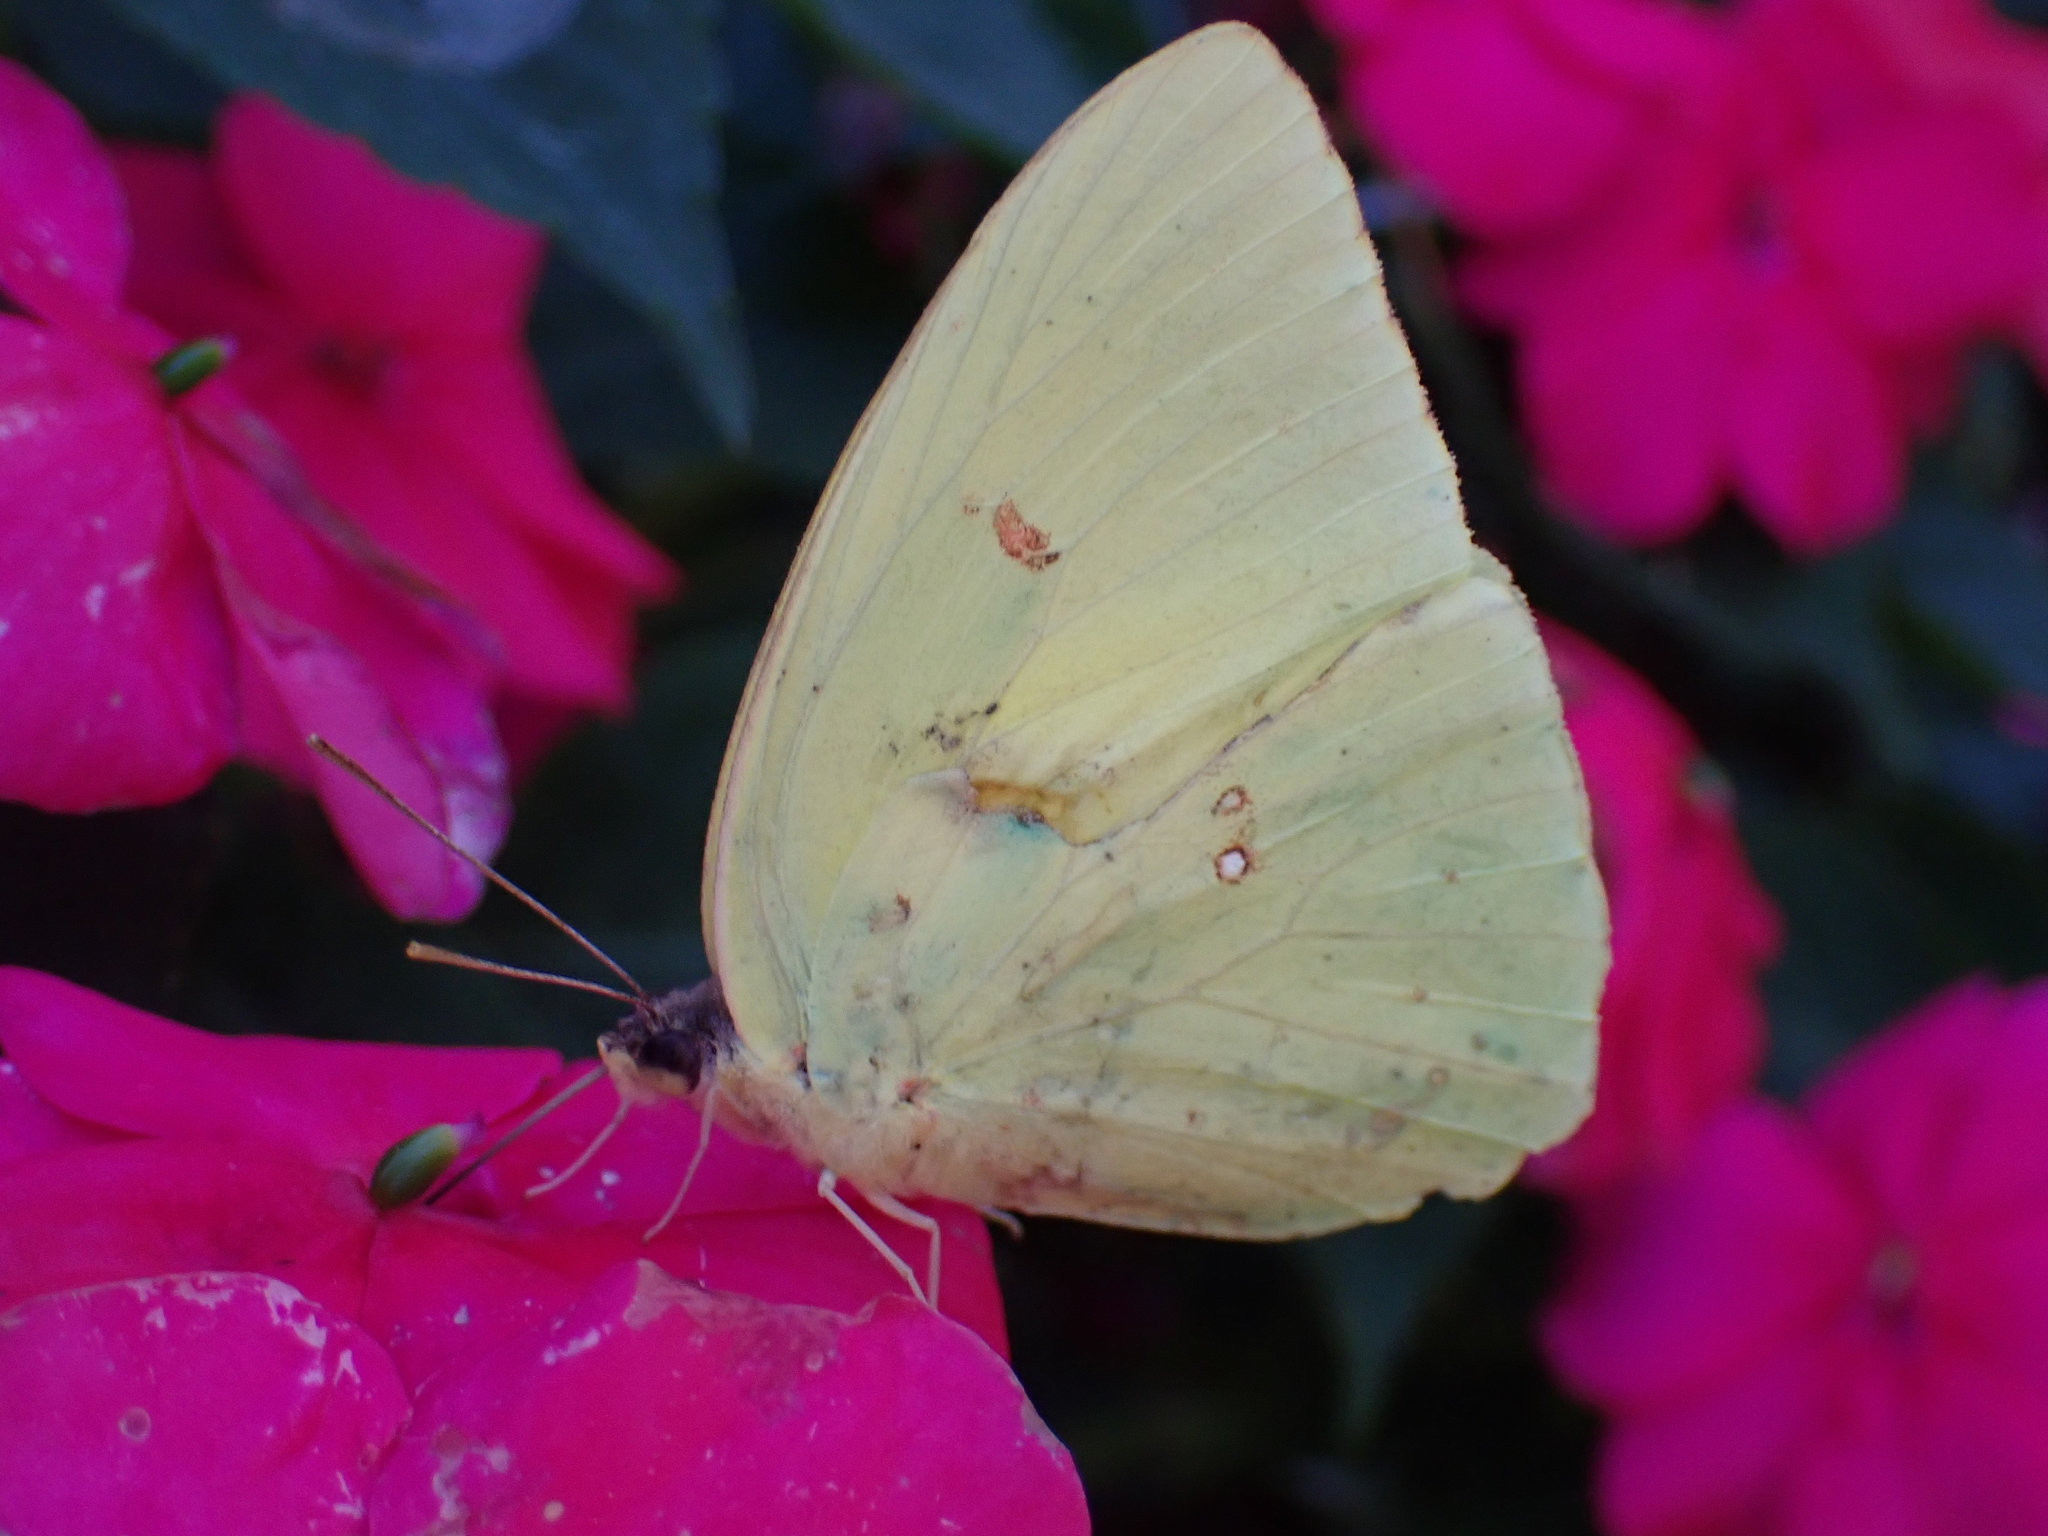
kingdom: Animalia
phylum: Arthropoda
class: Insecta
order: Lepidoptera
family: Pieridae
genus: Phoebis
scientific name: Phoebis sennae
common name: Cloudless sulphur
